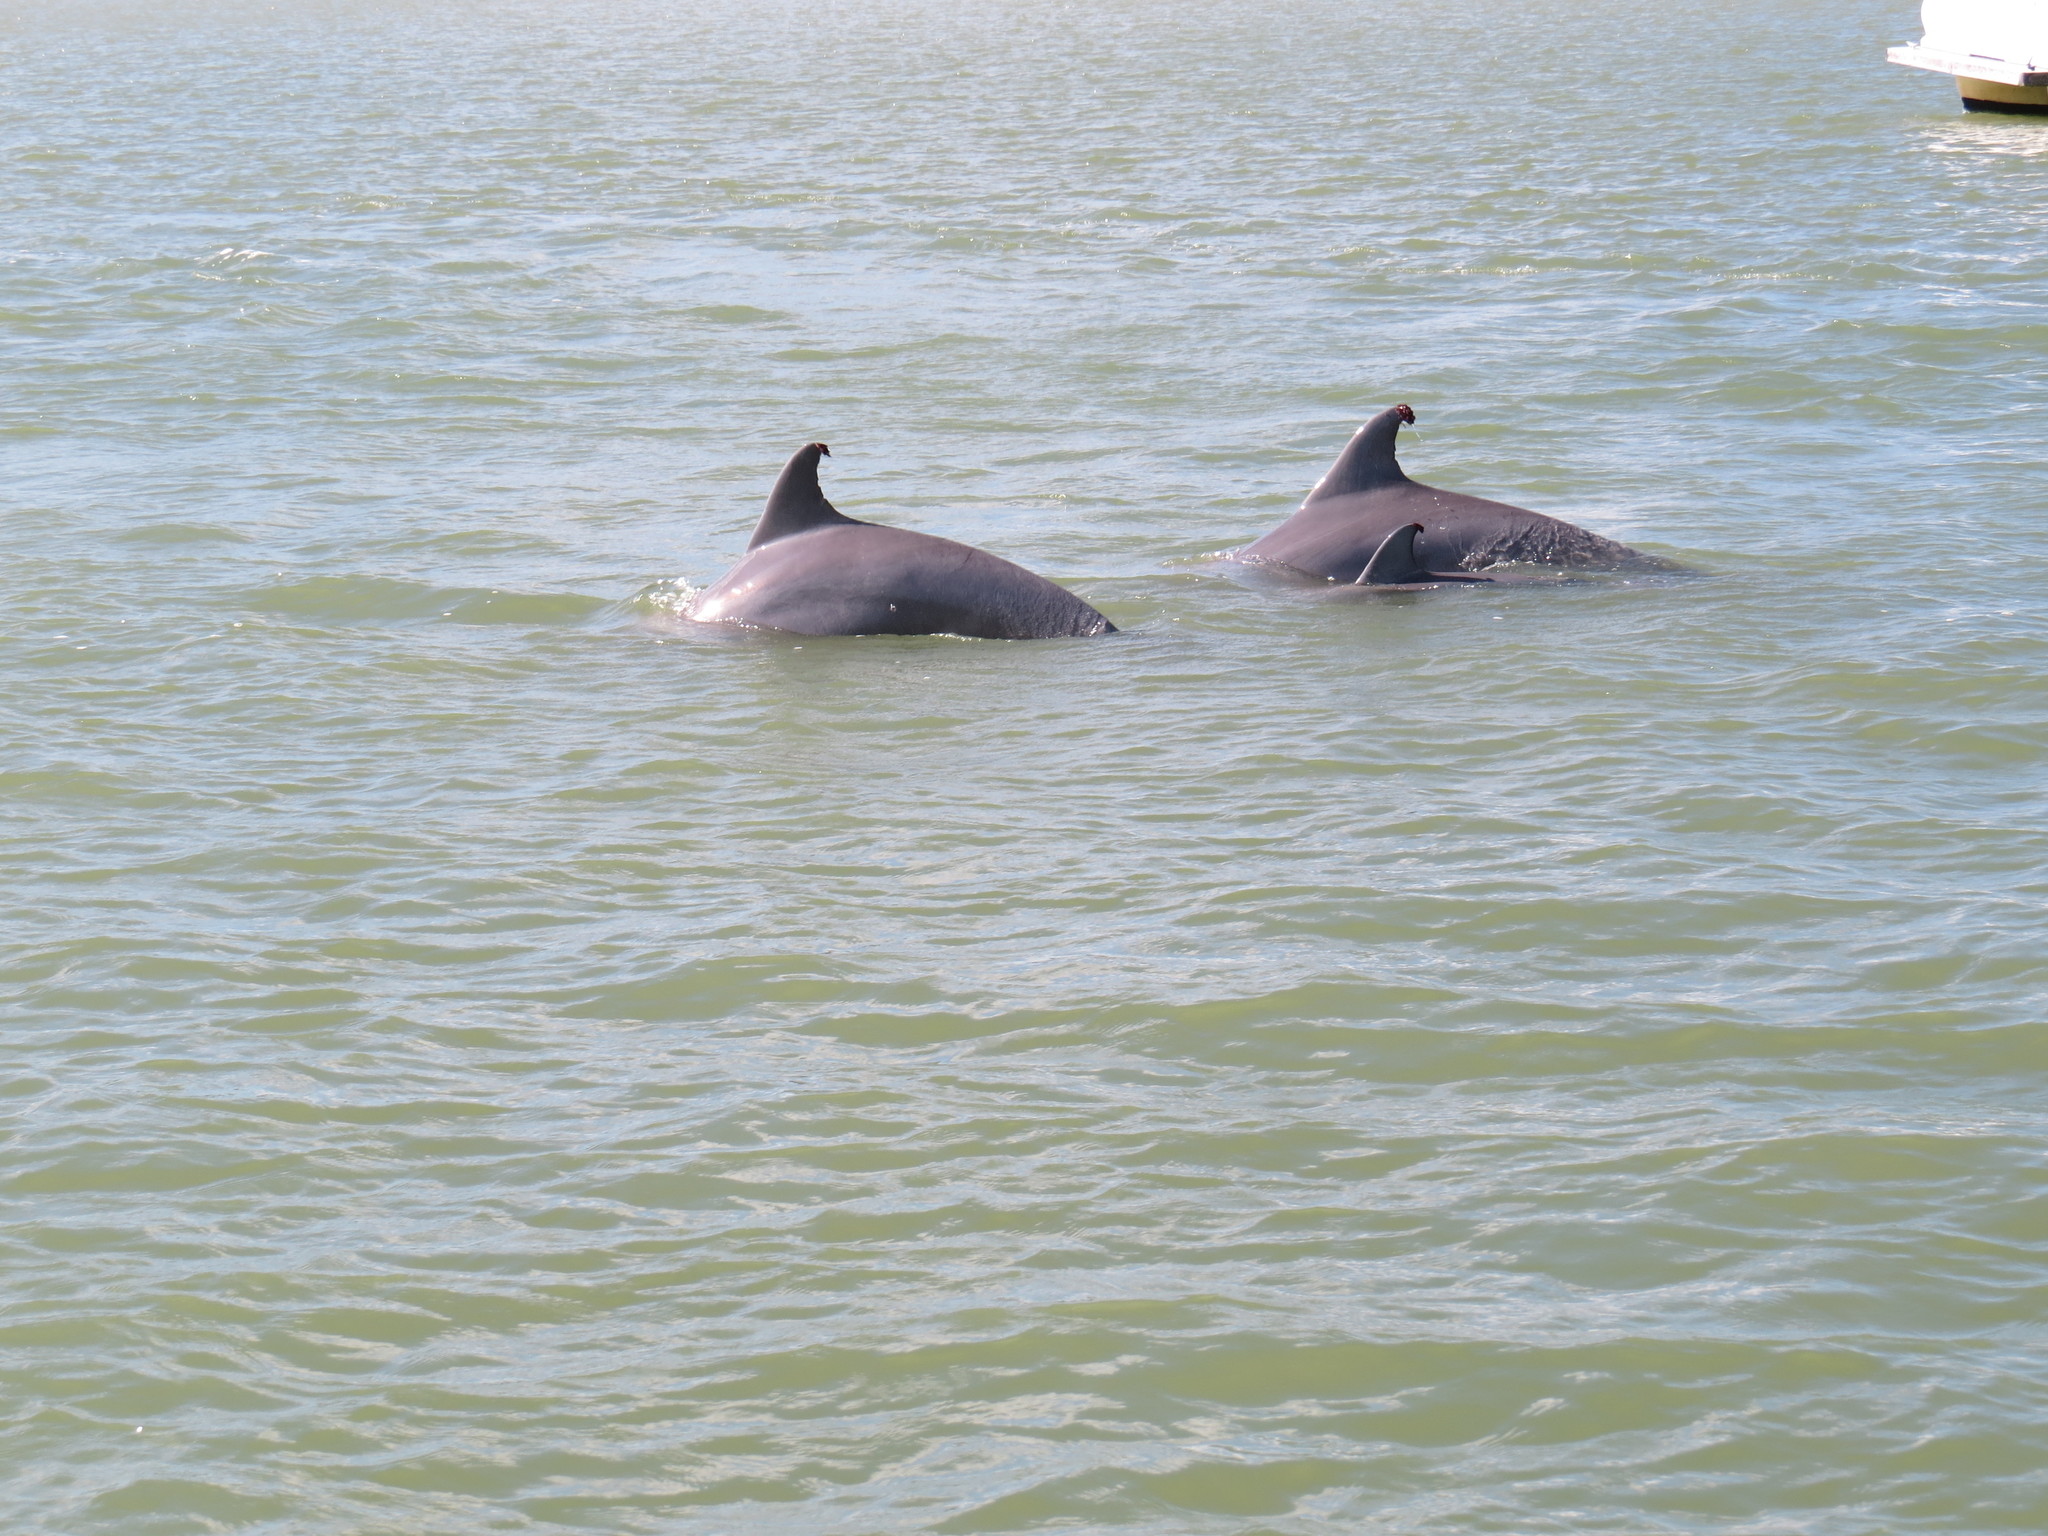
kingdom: Animalia
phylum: Chordata
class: Mammalia
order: Cetacea
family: Delphinidae
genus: Tursiops
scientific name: Tursiops truncatus
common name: Bottlenose dolphin
